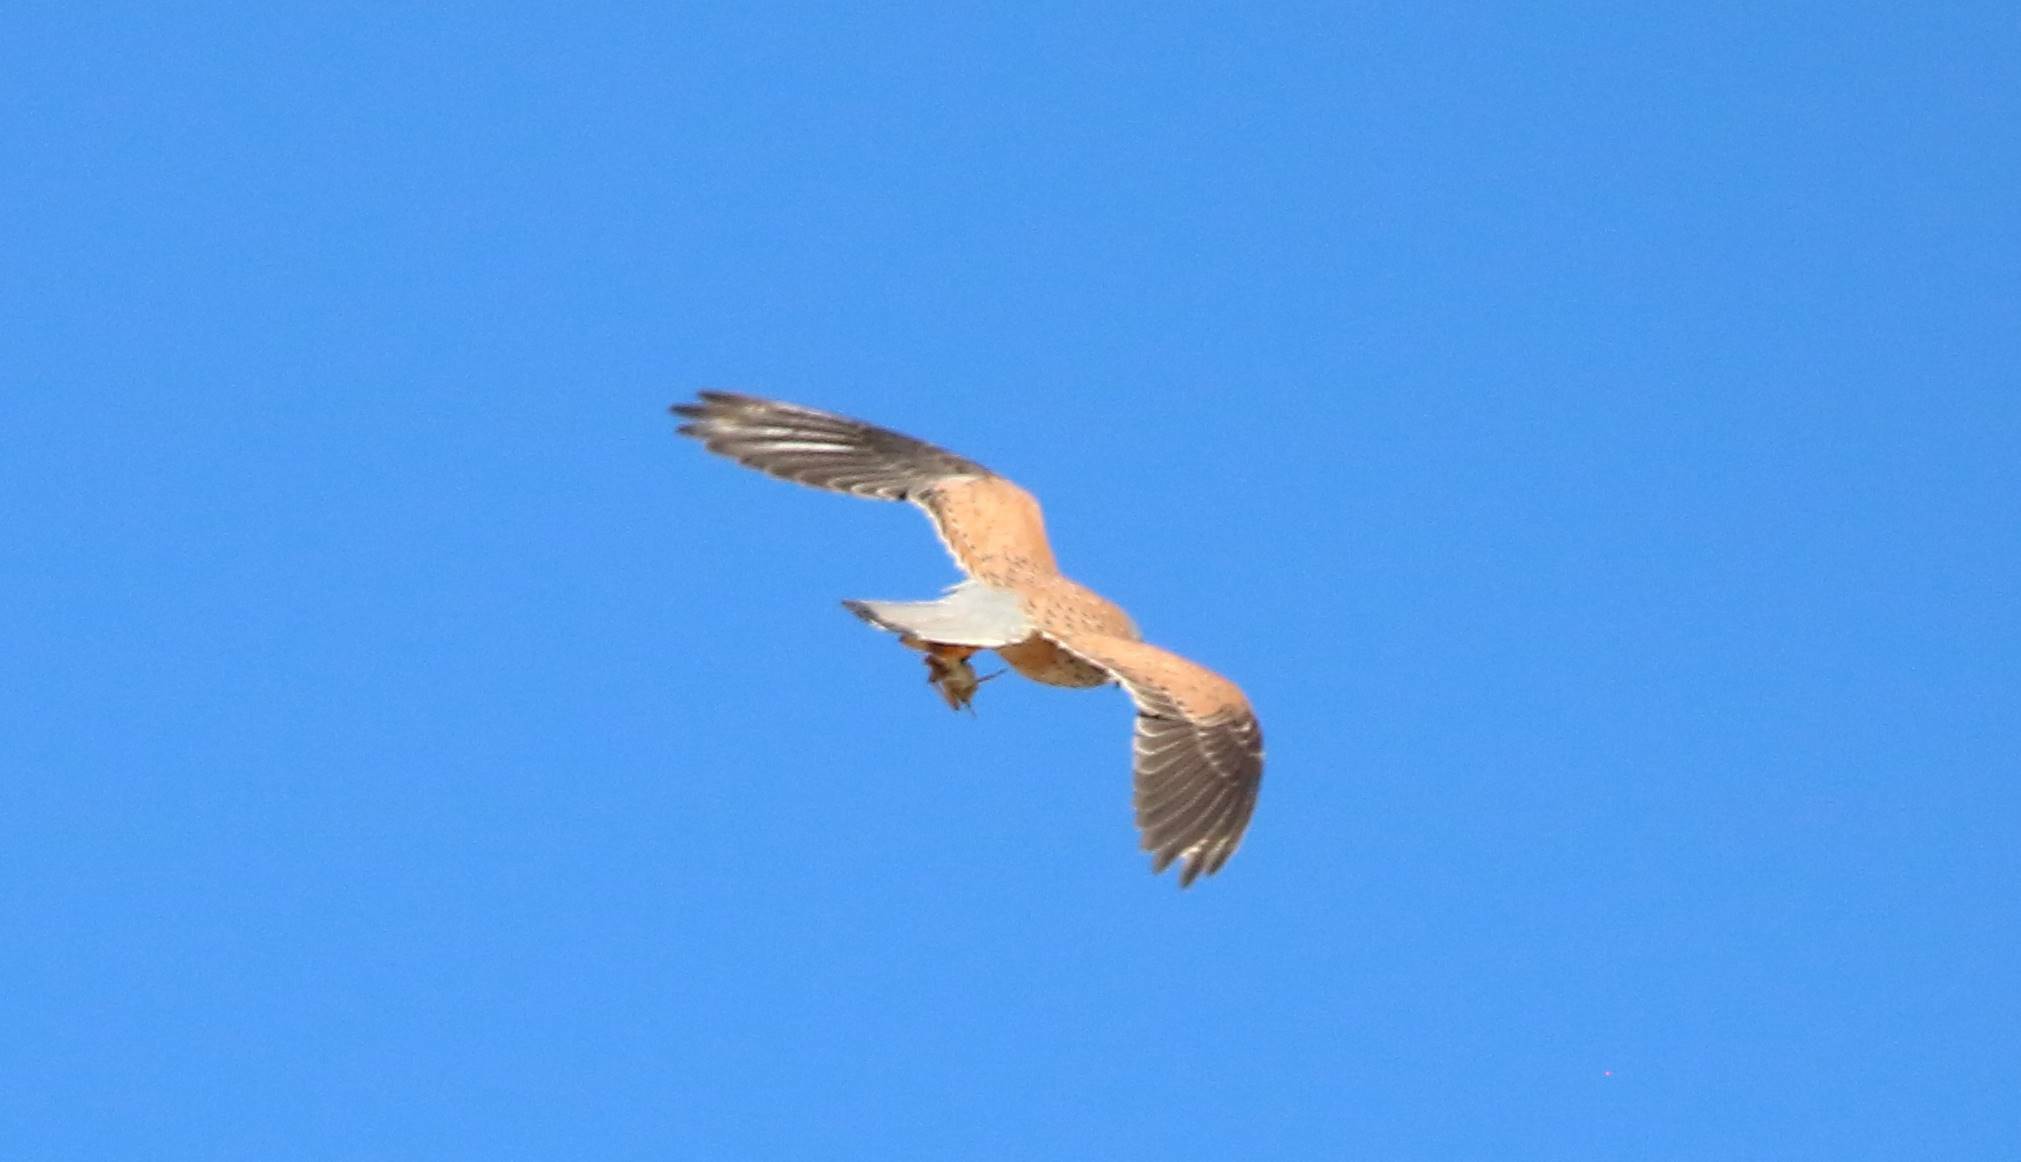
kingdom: Animalia
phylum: Chordata
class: Aves
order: Falconiformes
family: Falconidae
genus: Falco
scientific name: Falco tinnunculus
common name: Common kestrel
